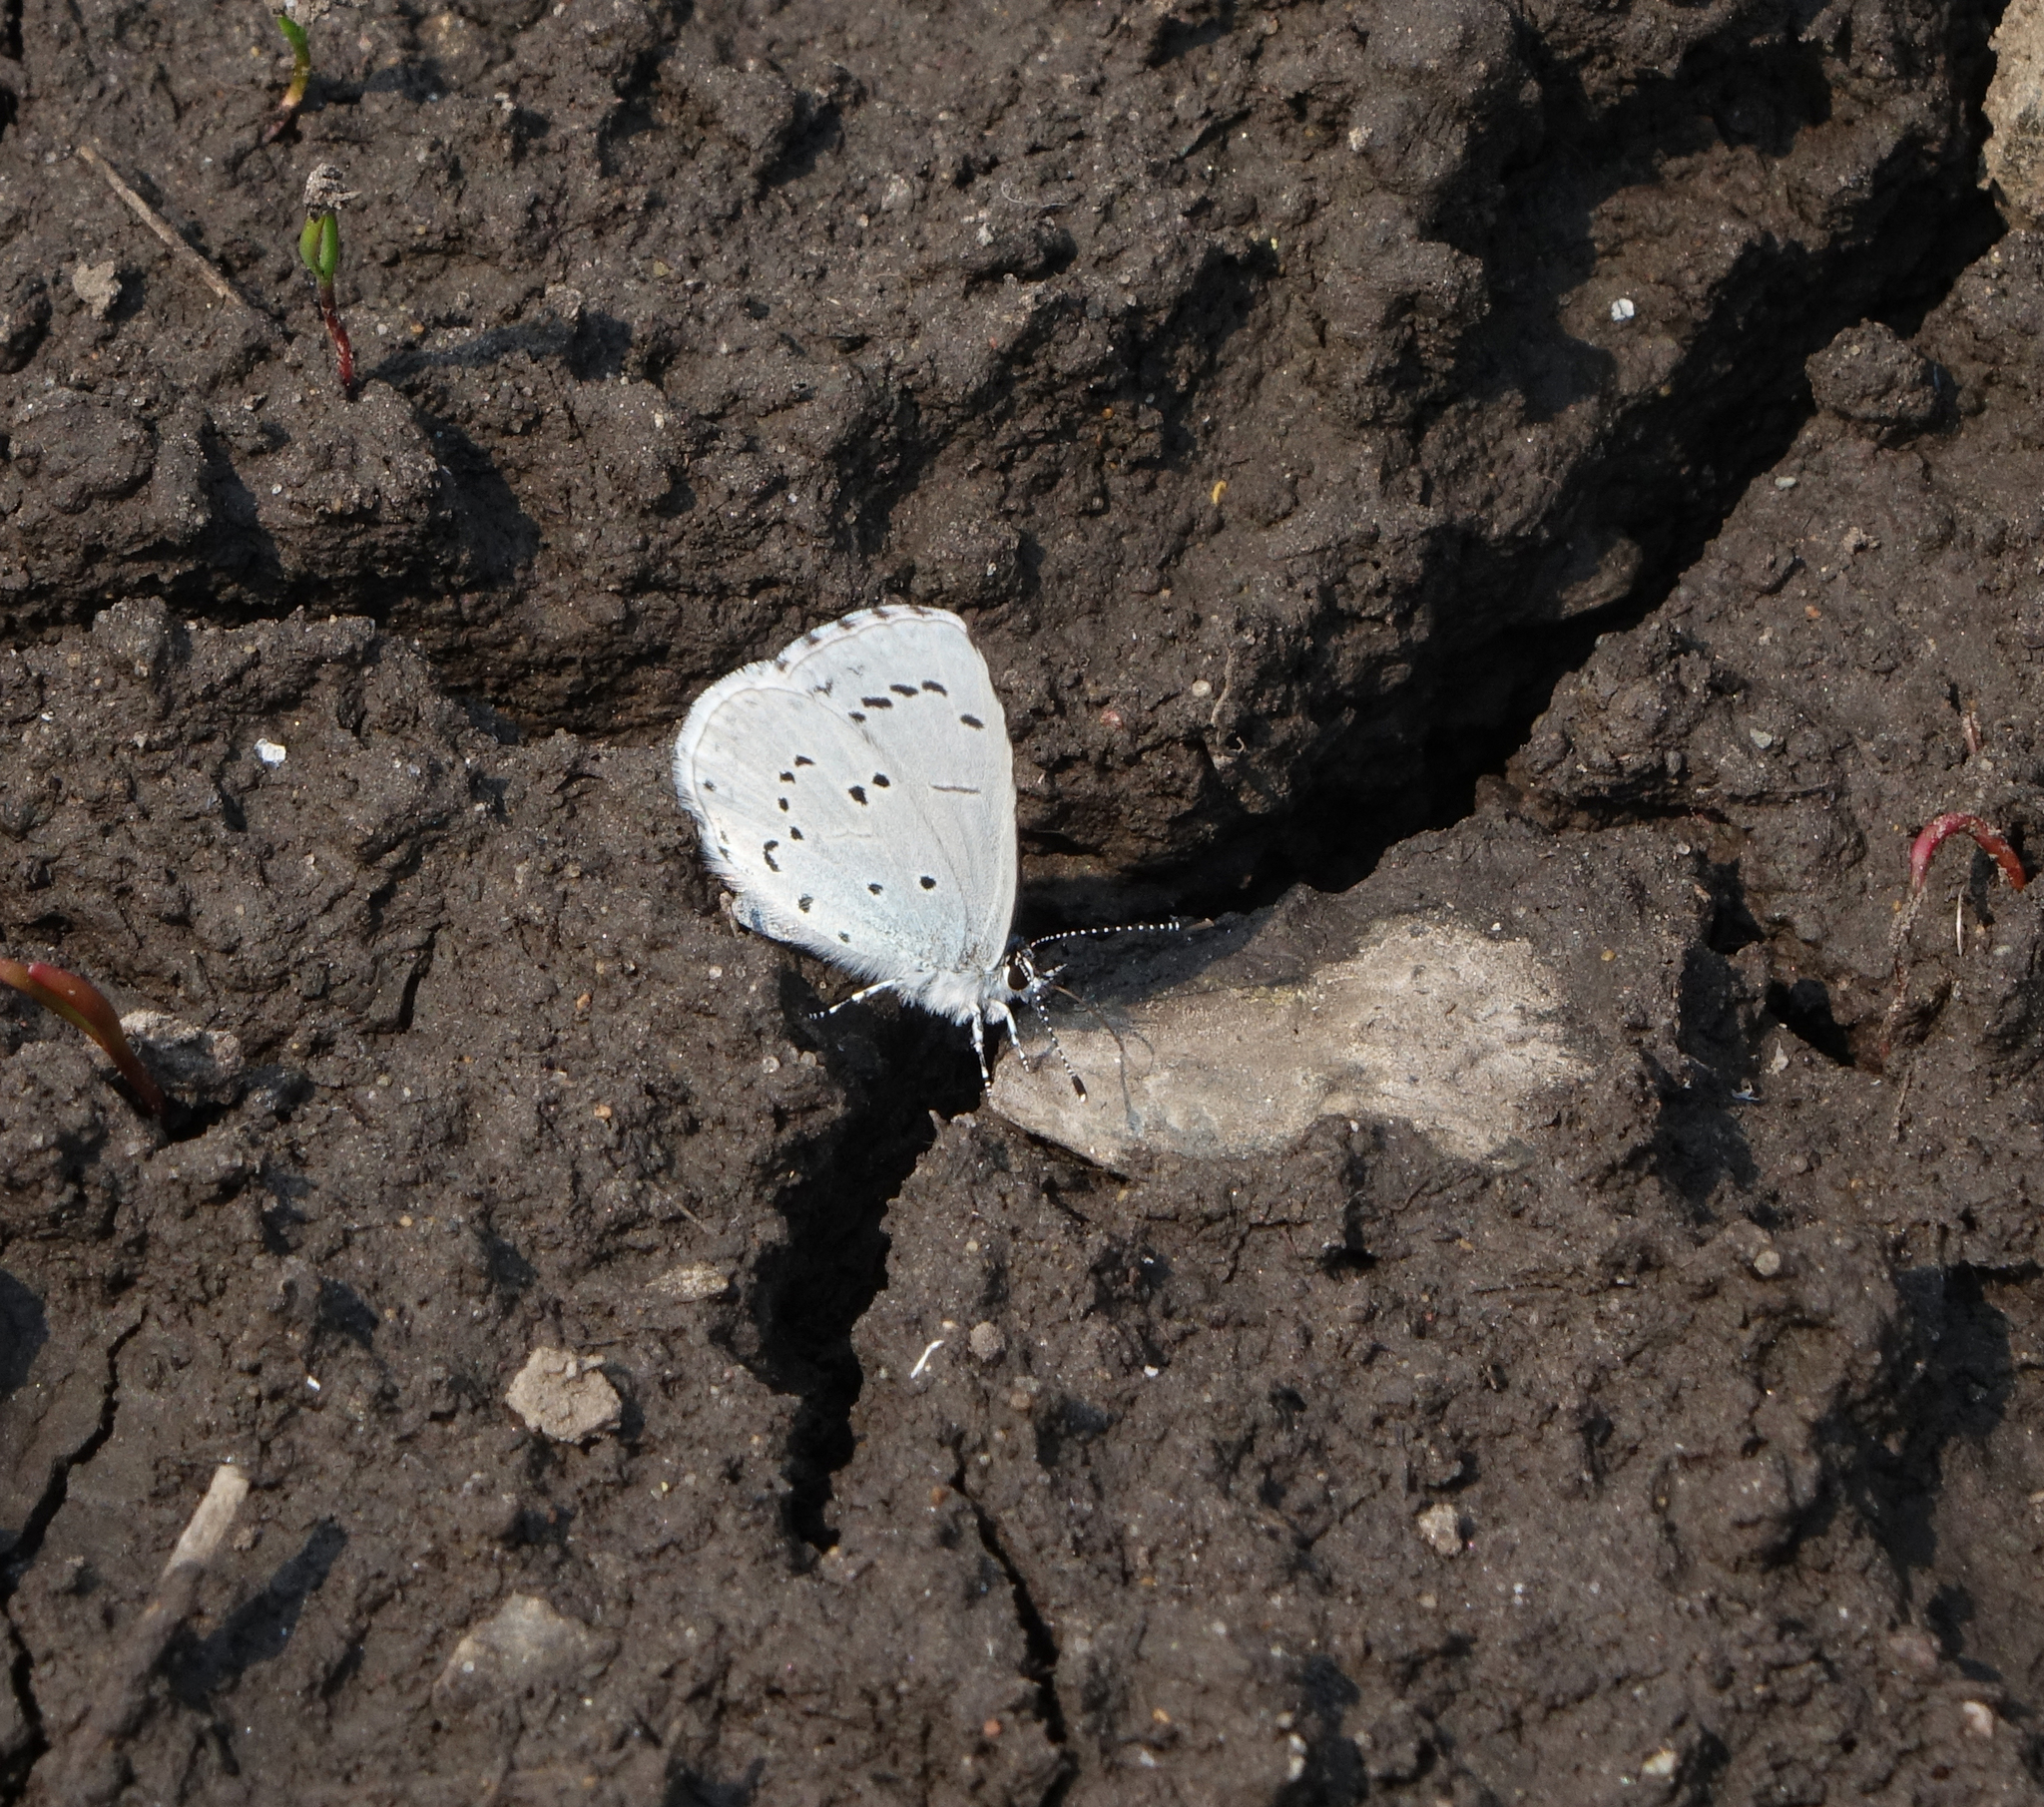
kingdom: Animalia
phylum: Arthropoda
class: Insecta
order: Lepidoptera
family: Lycaenidae
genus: Celastrina
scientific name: Celastrina argiolus
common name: Holly blue
